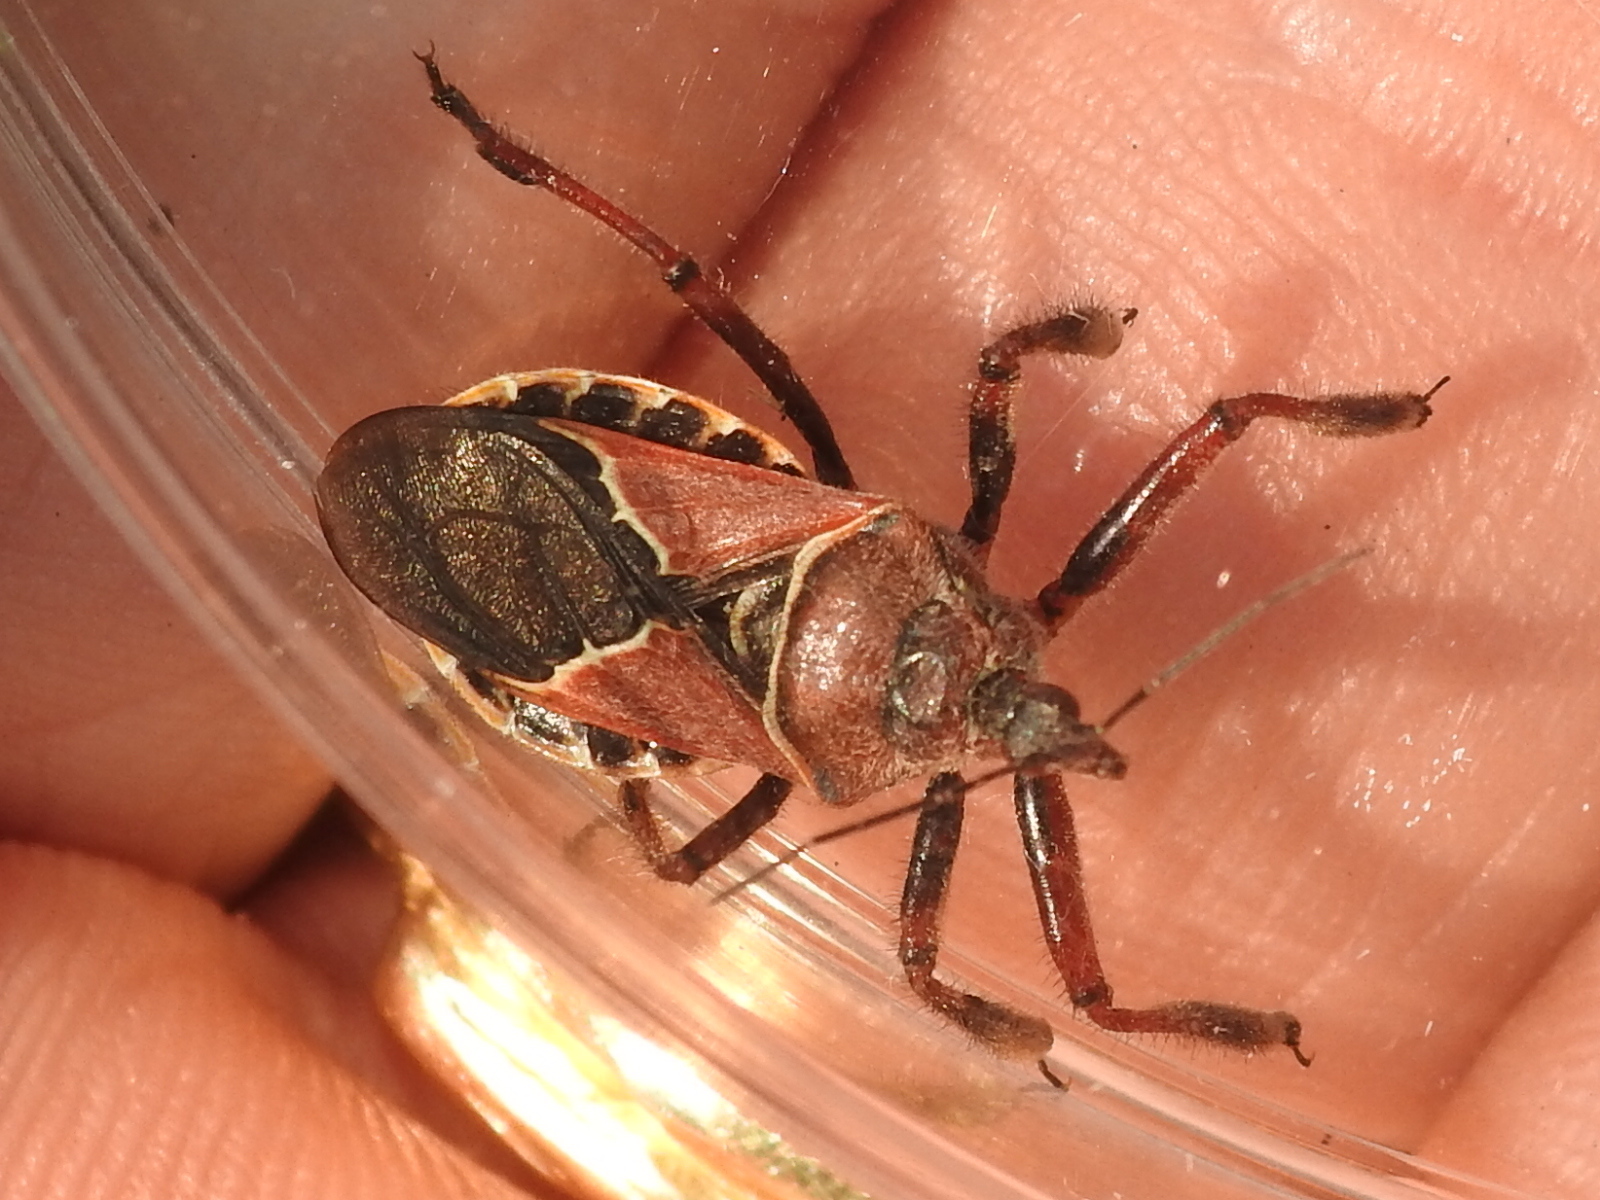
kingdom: Animalia
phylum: Arthropoda
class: Insecta
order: Hemiptera
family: Reduviidae
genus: Apiomerus
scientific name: Apiomerus spissipes
